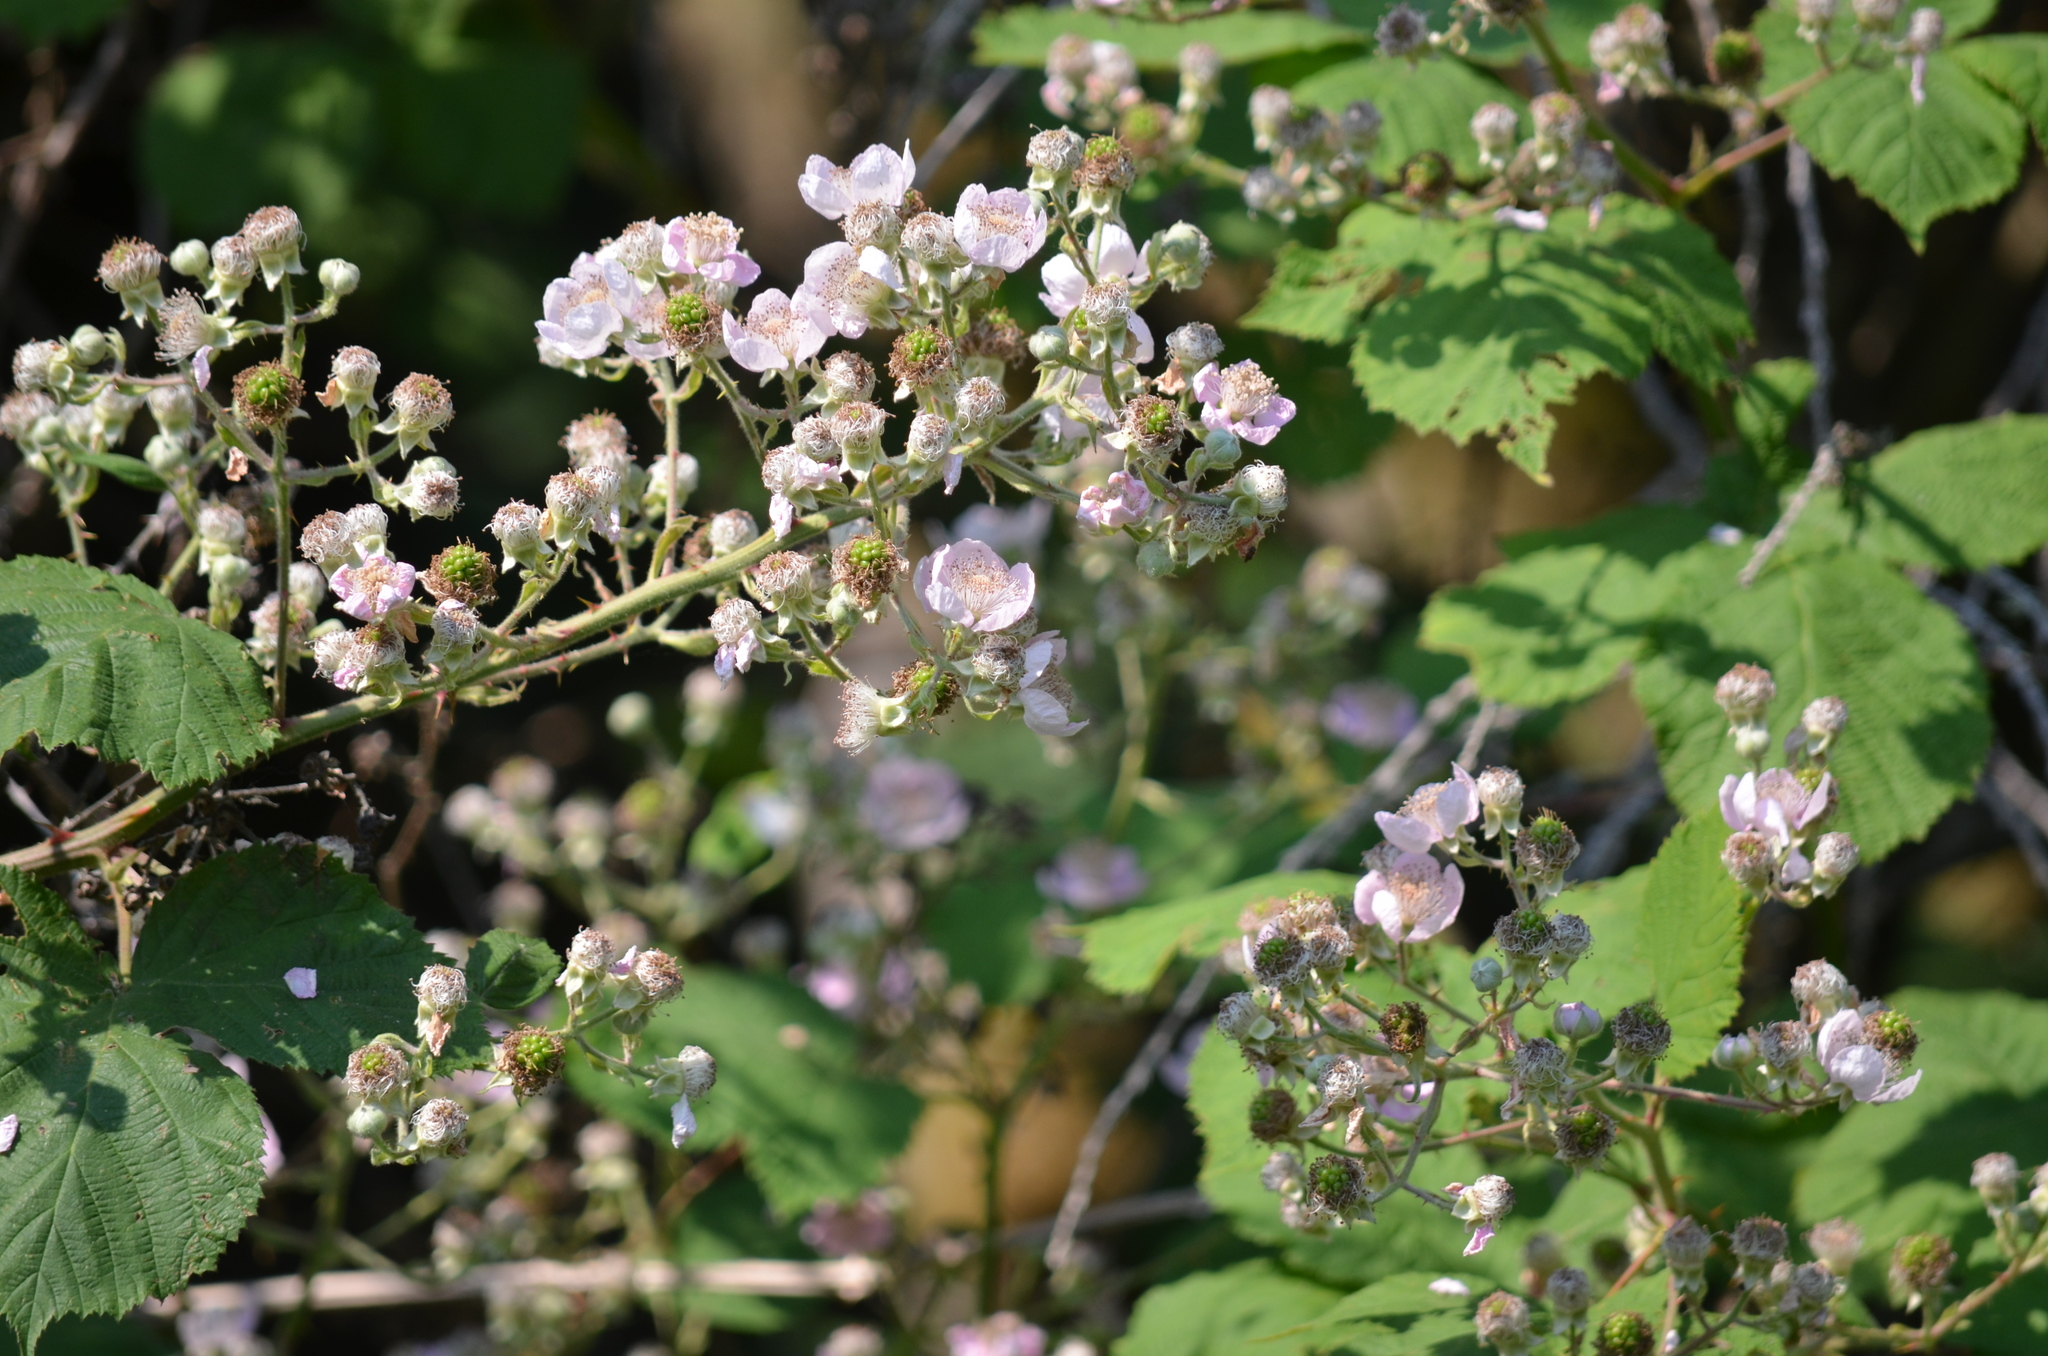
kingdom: Plantae
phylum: Tracheophyta
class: Magnoliopsida
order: Rosales
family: Rosaceae
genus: Rubus
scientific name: Rubus armeniacus
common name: Himalayan blackberry
